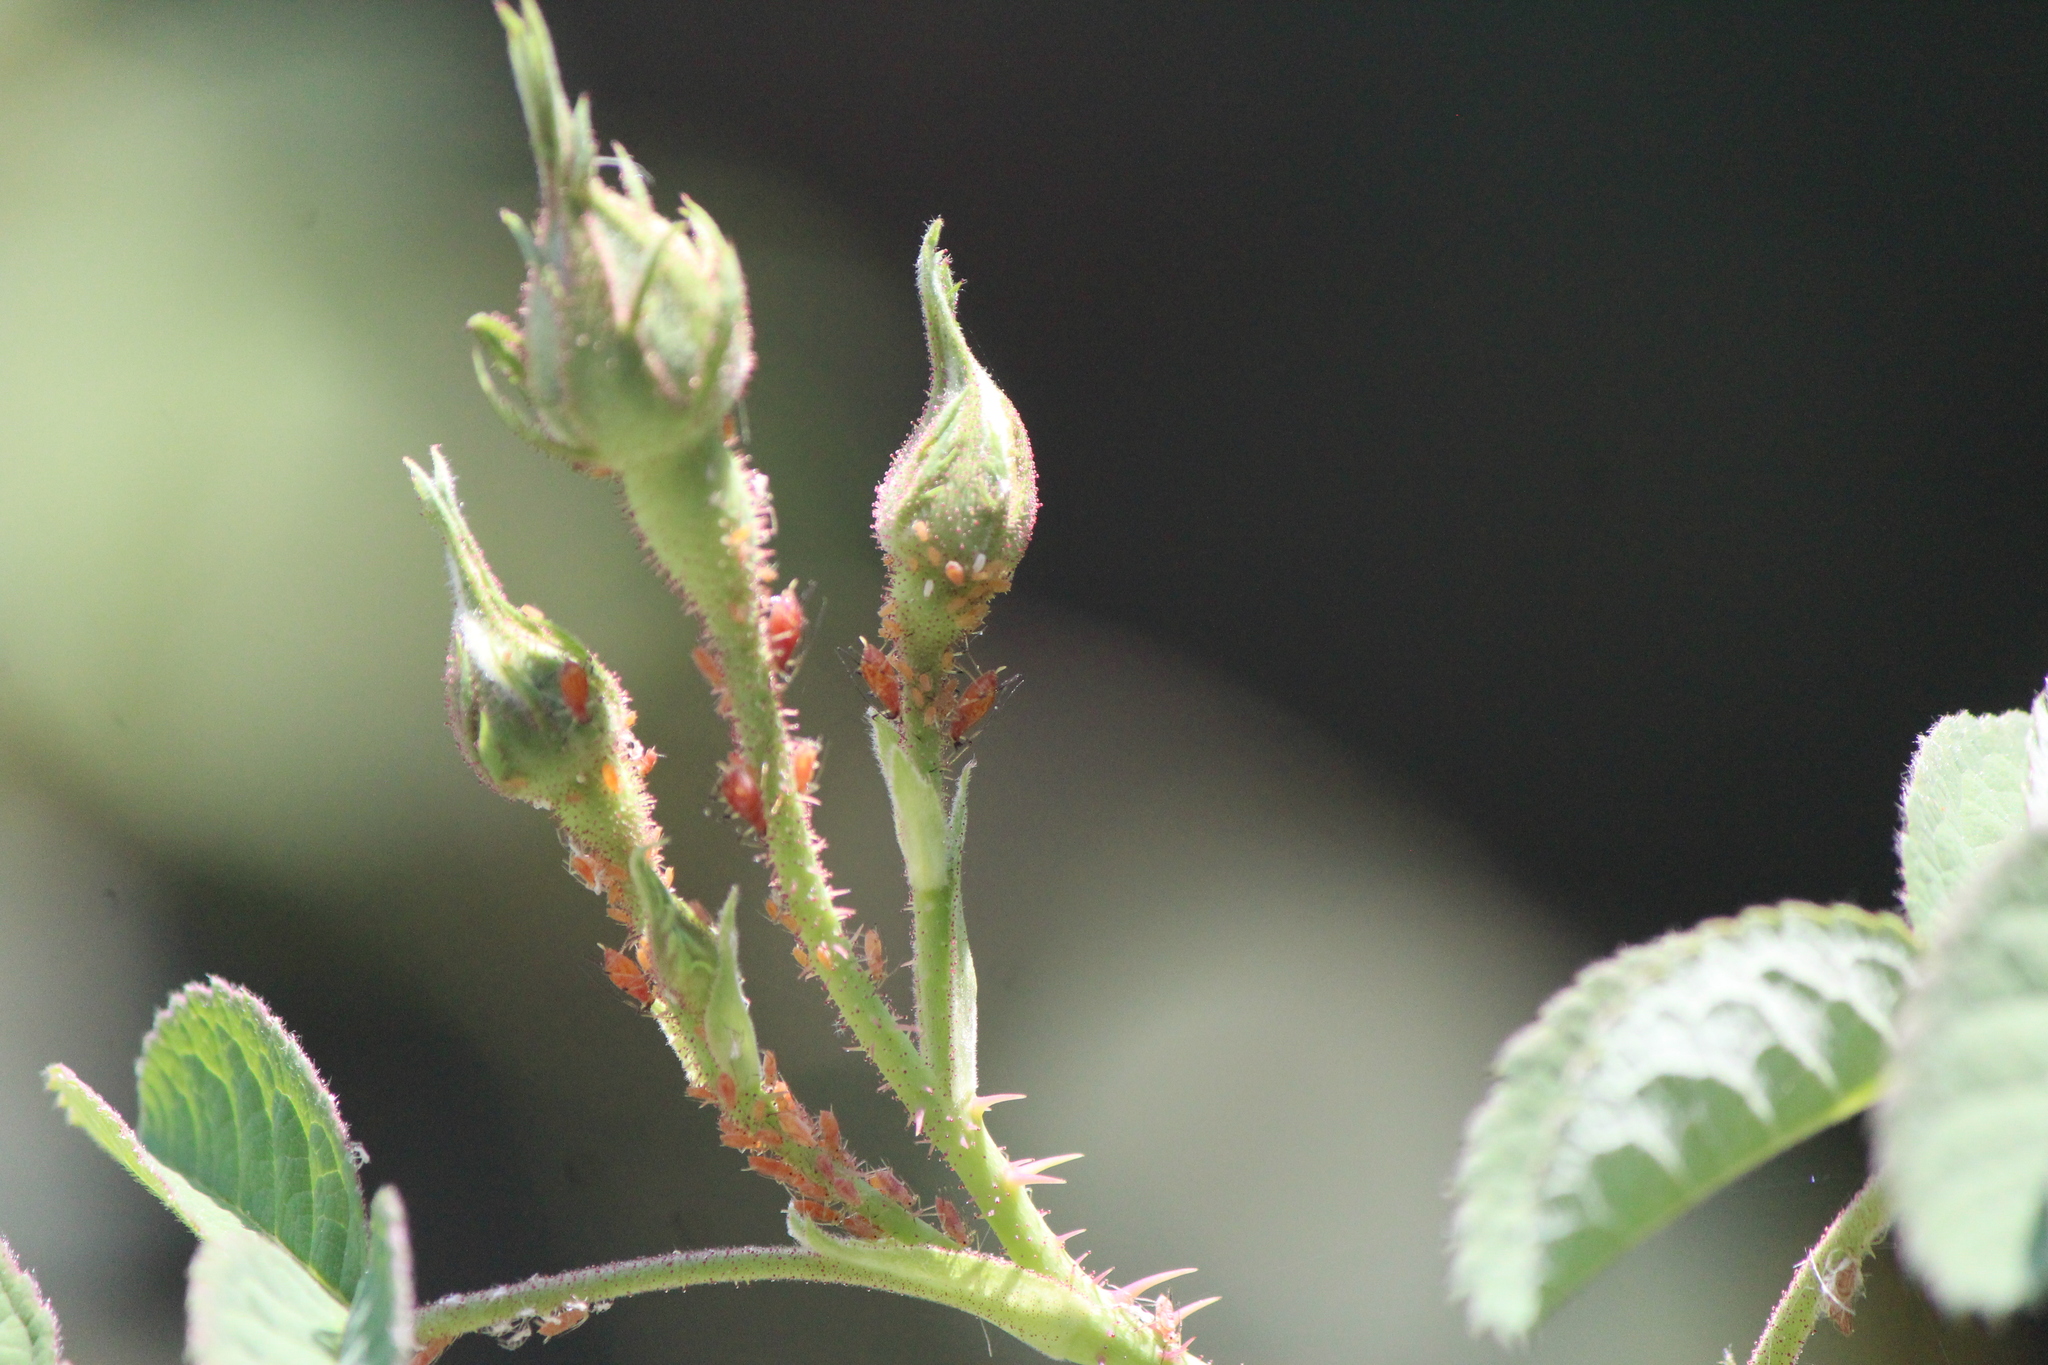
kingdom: Animalia
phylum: Arthropoda
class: Insecta
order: Hemiptera
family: Aphididae
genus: Macrosiphum
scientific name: Macrosiphum rosae
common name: Rose aphid
